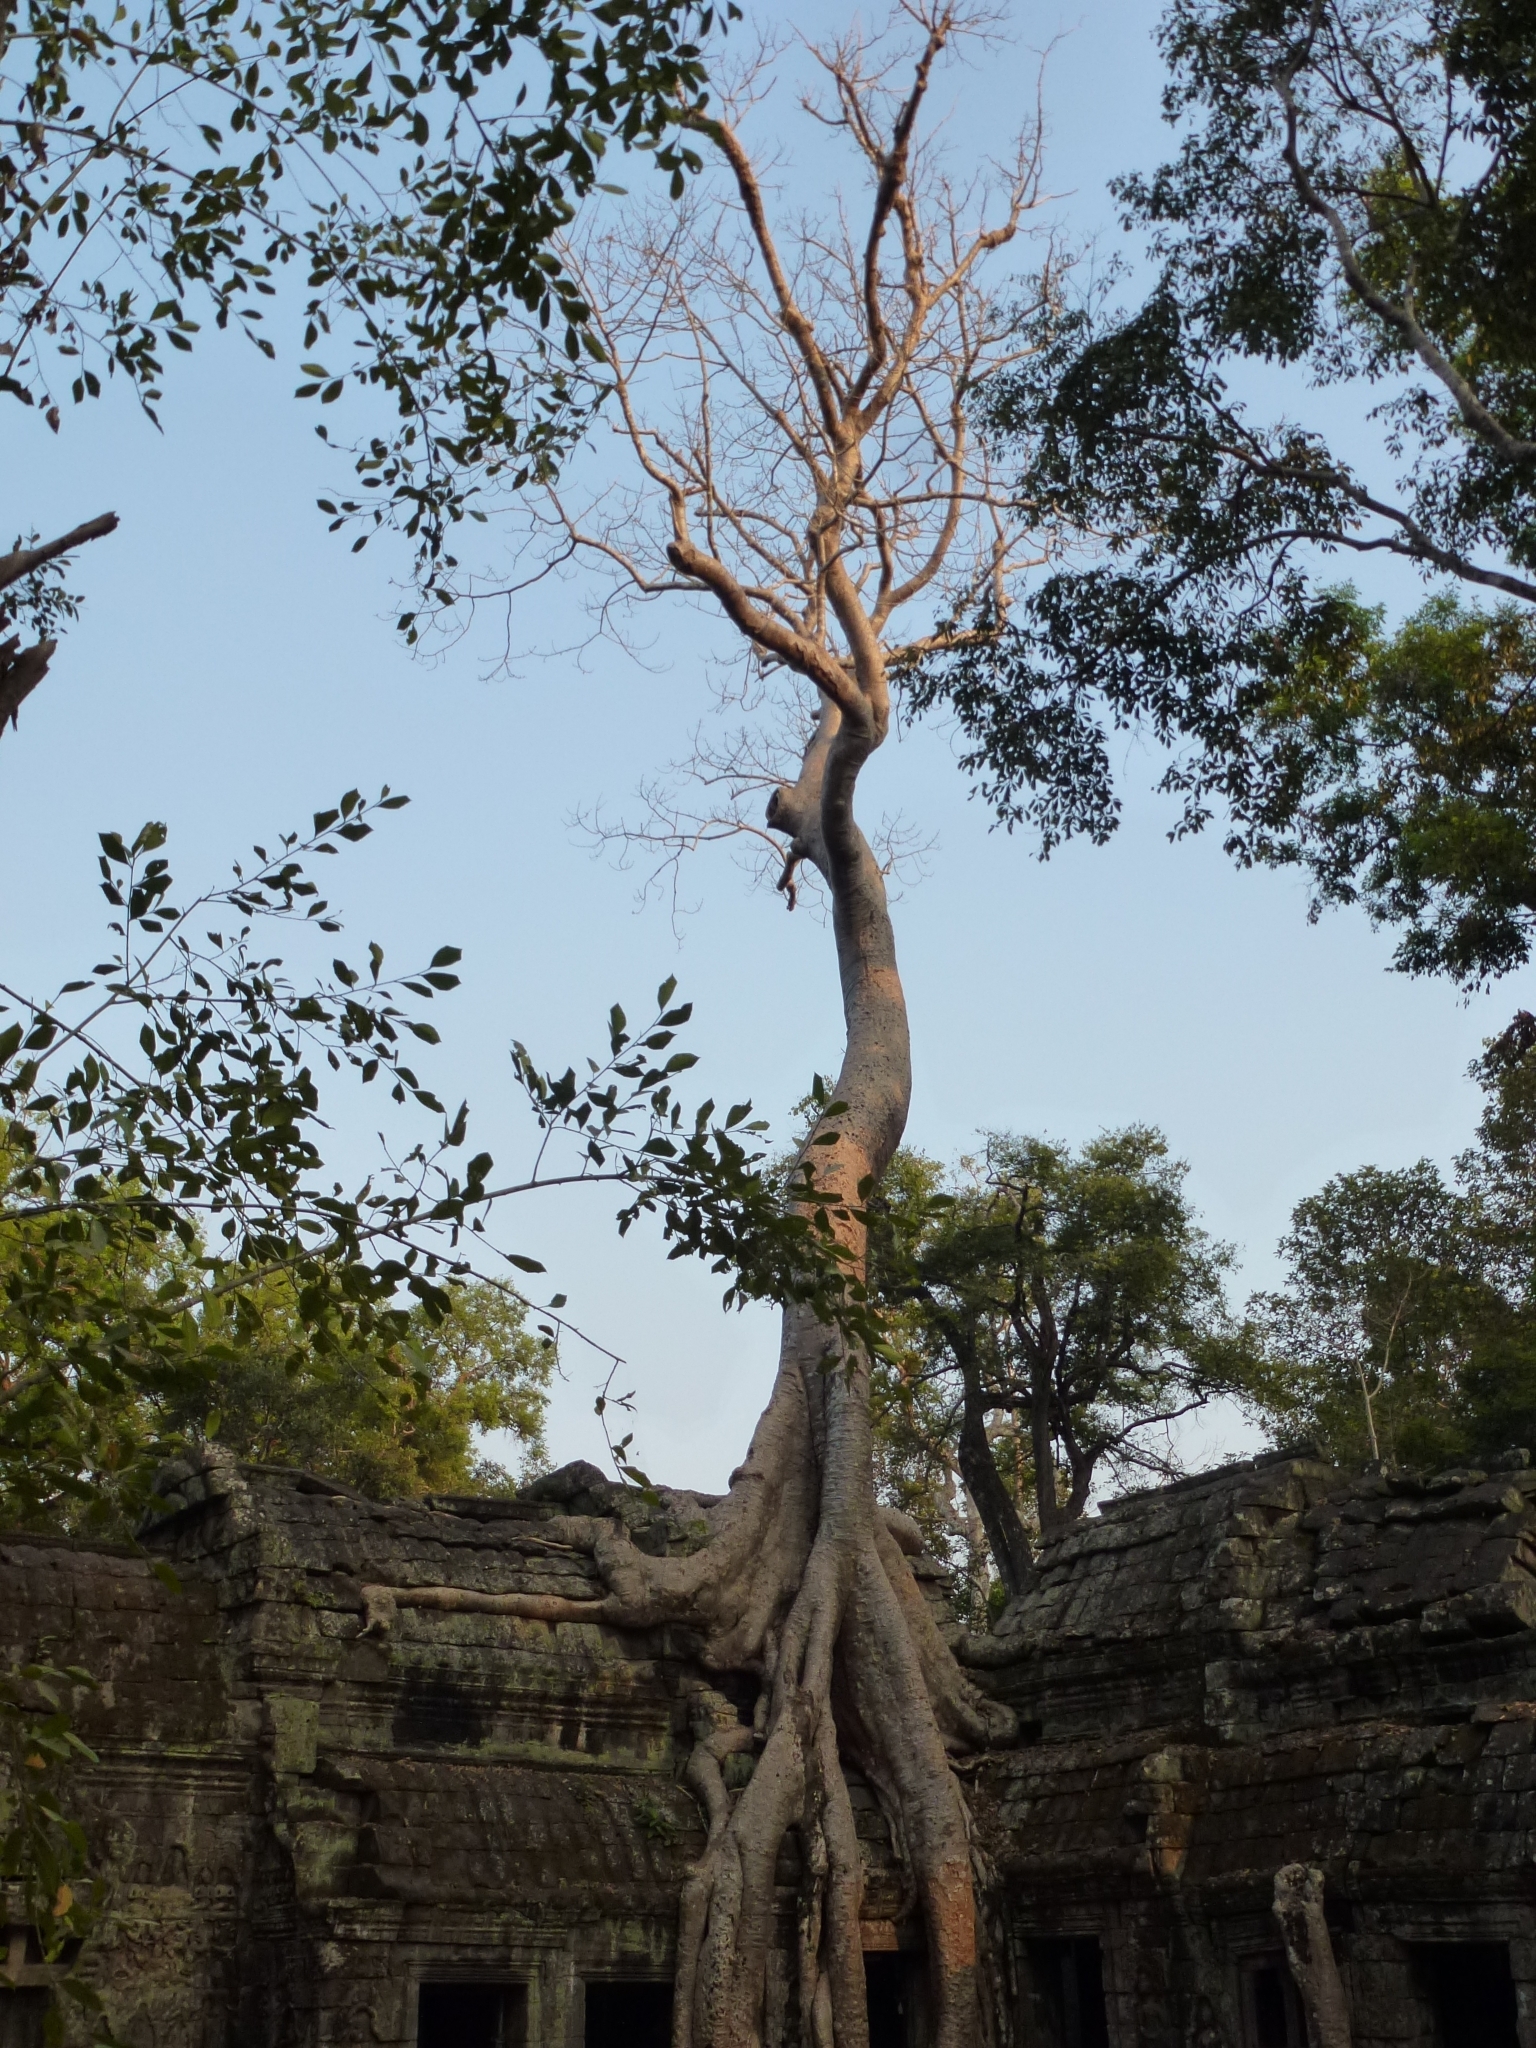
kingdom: Plantae
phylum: Tracheophyta
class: Magnoliopsida
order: Cucurbitales
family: Tetramelaceae
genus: Tetrameles
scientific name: Tetrameles nudiflora
